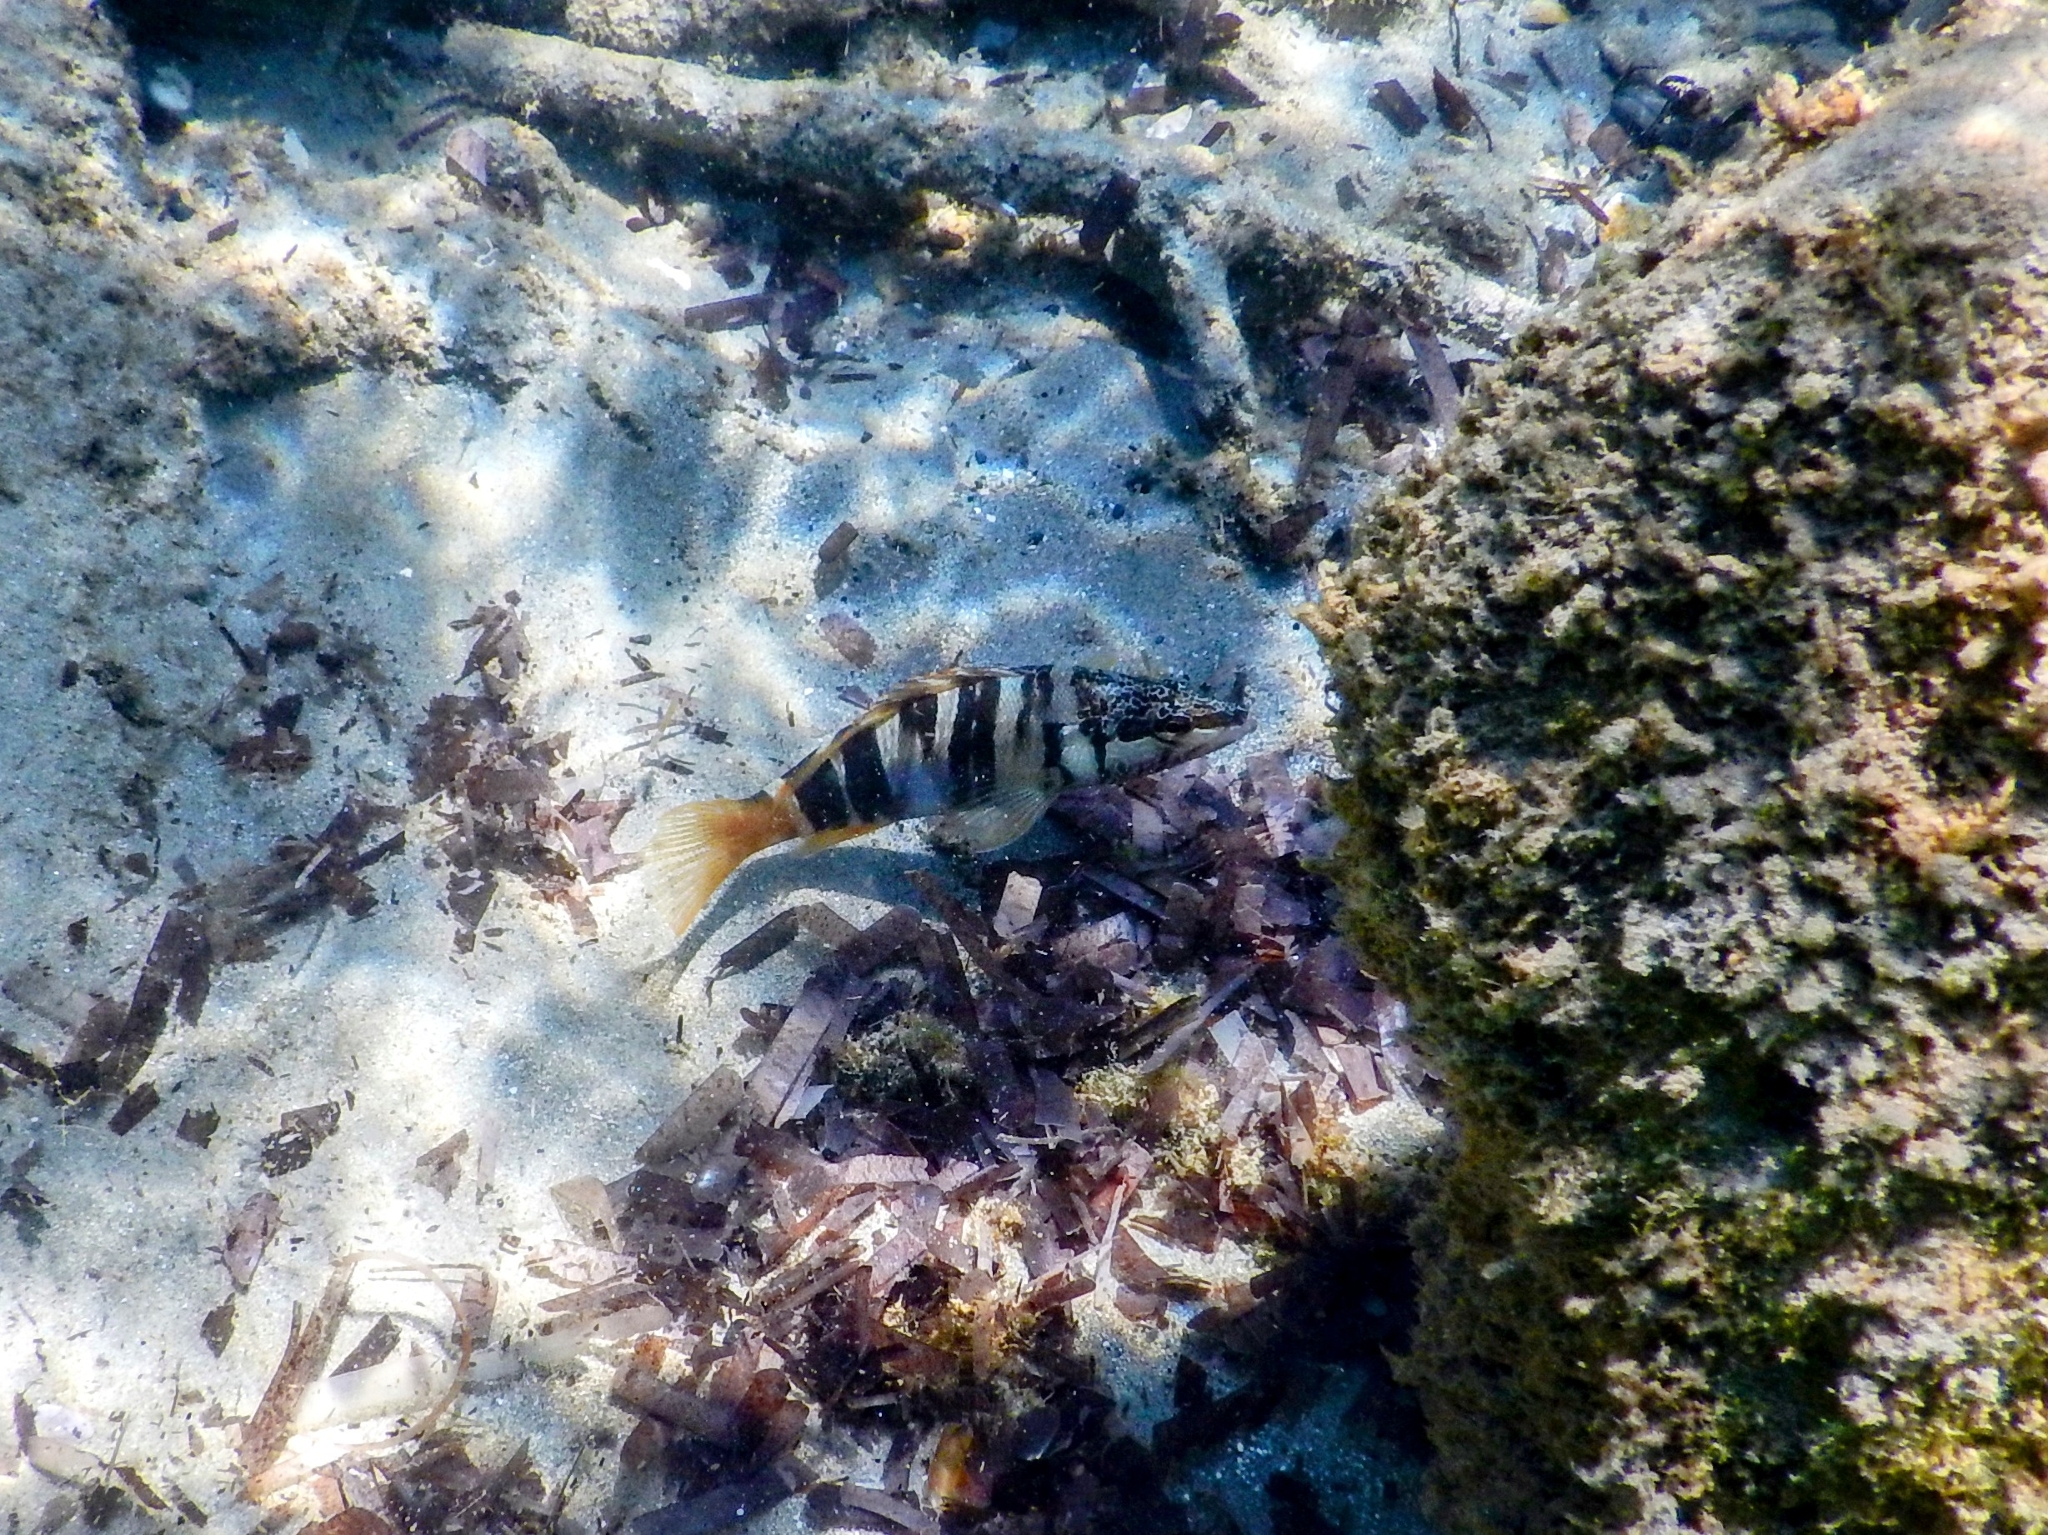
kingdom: Animalia
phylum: Chordata
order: Perciformes
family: Serranidae
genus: Serranus
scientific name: Serranus scriba
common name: Painted comber
